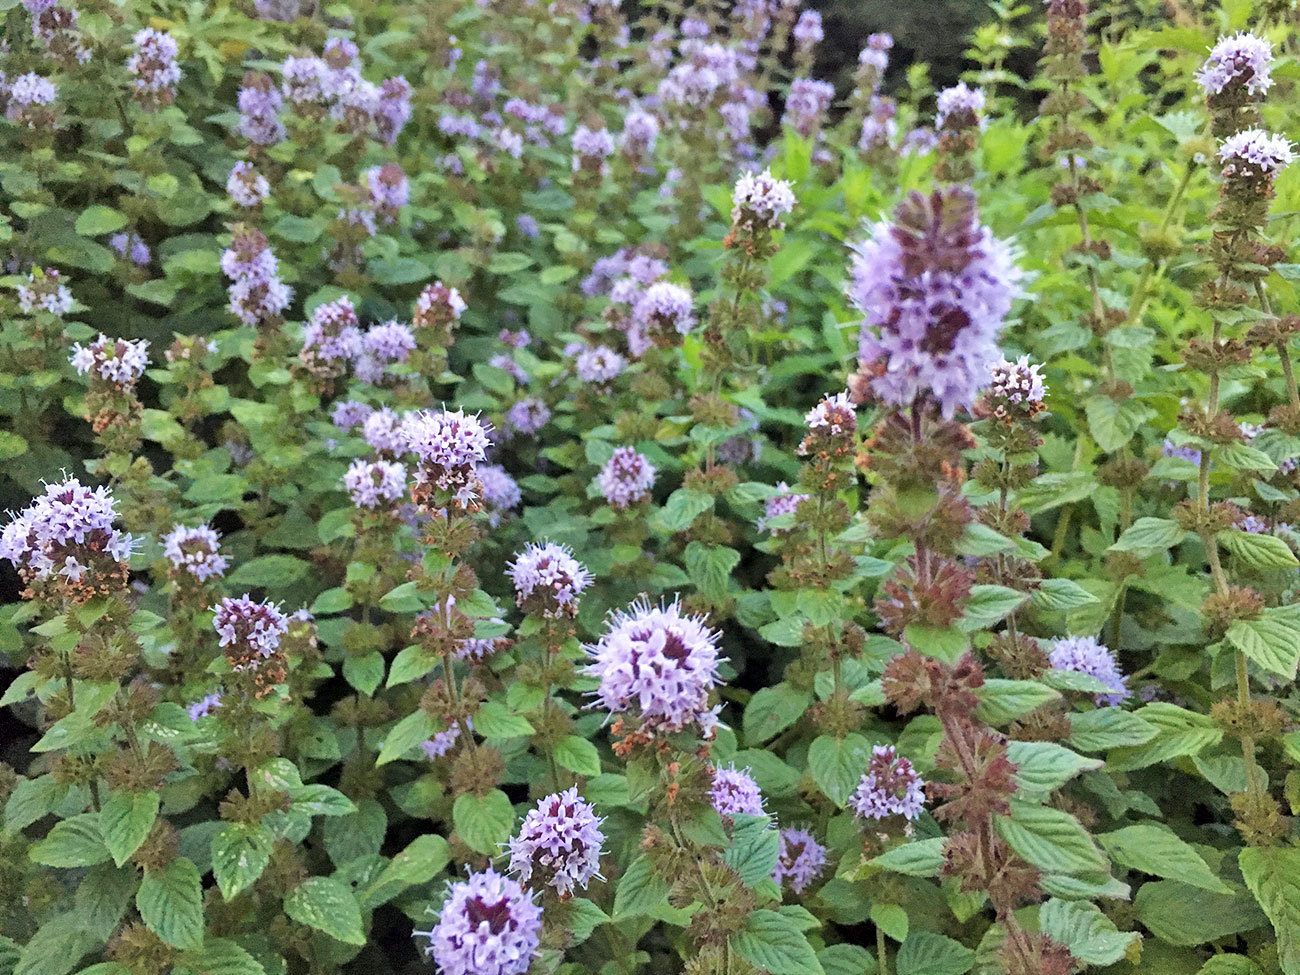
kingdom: Plantae
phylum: Tracheophyta
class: Magnoliopsida
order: Lamiales
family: Lamiaceae
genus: Mentha
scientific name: Mentha aquatica
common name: Water mint
